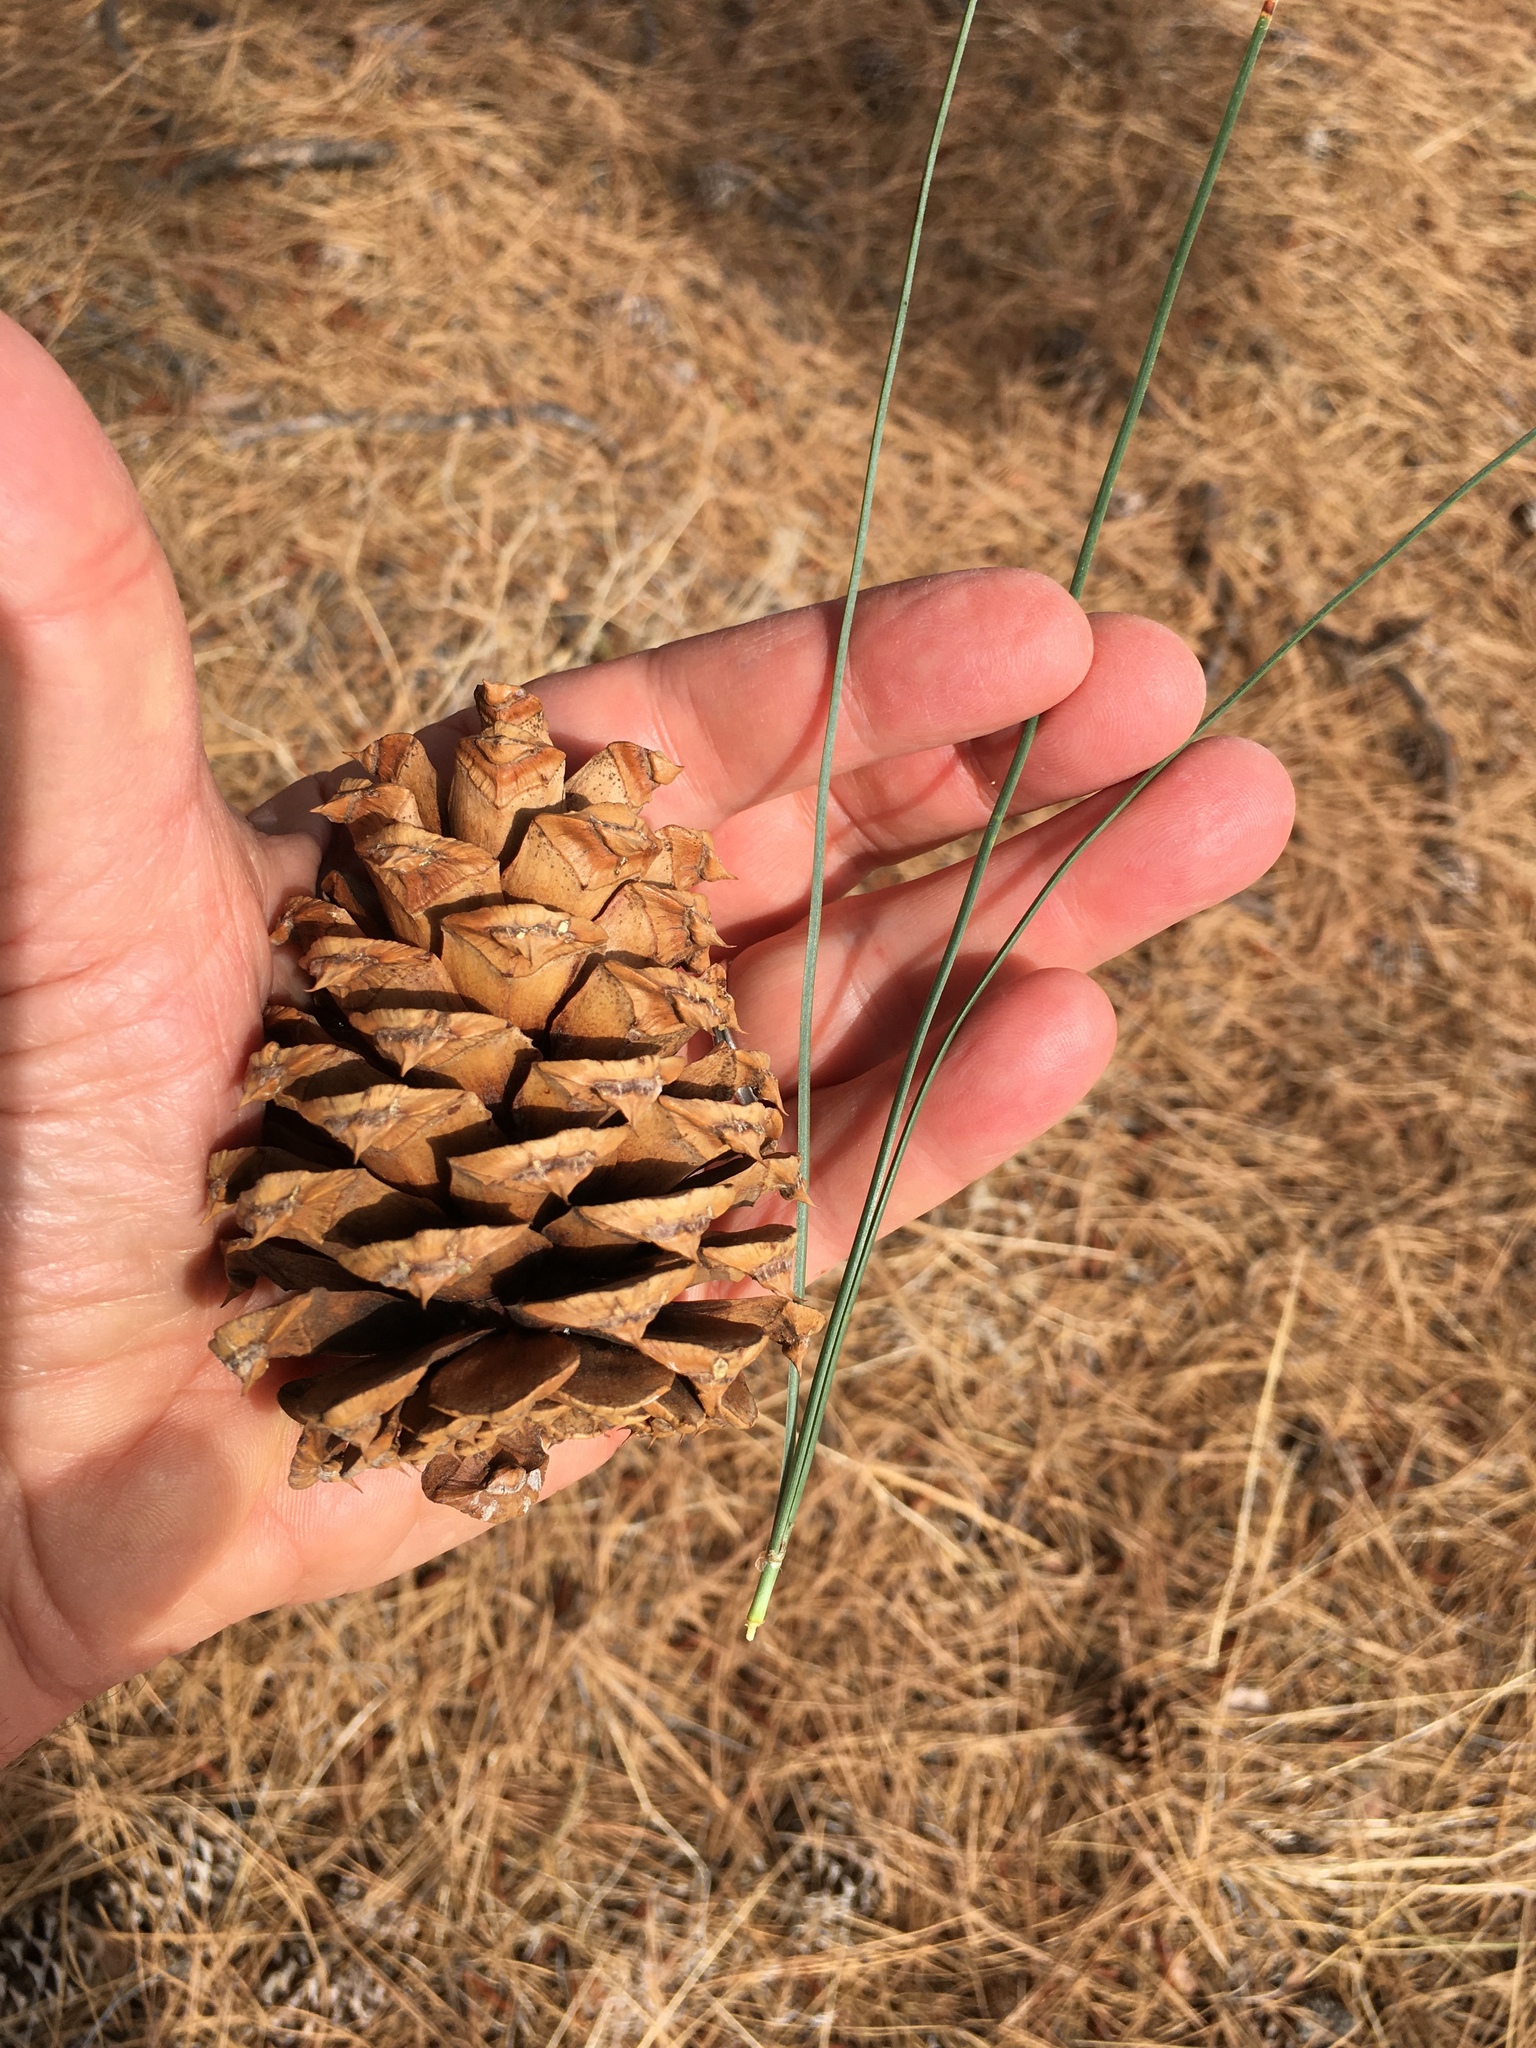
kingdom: Plantae
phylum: Tracheophyta
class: Pinopsida
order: Pinales
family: Pinaceae
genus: Pinus
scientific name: Pinus ponderosa
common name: Western yellow-pine
